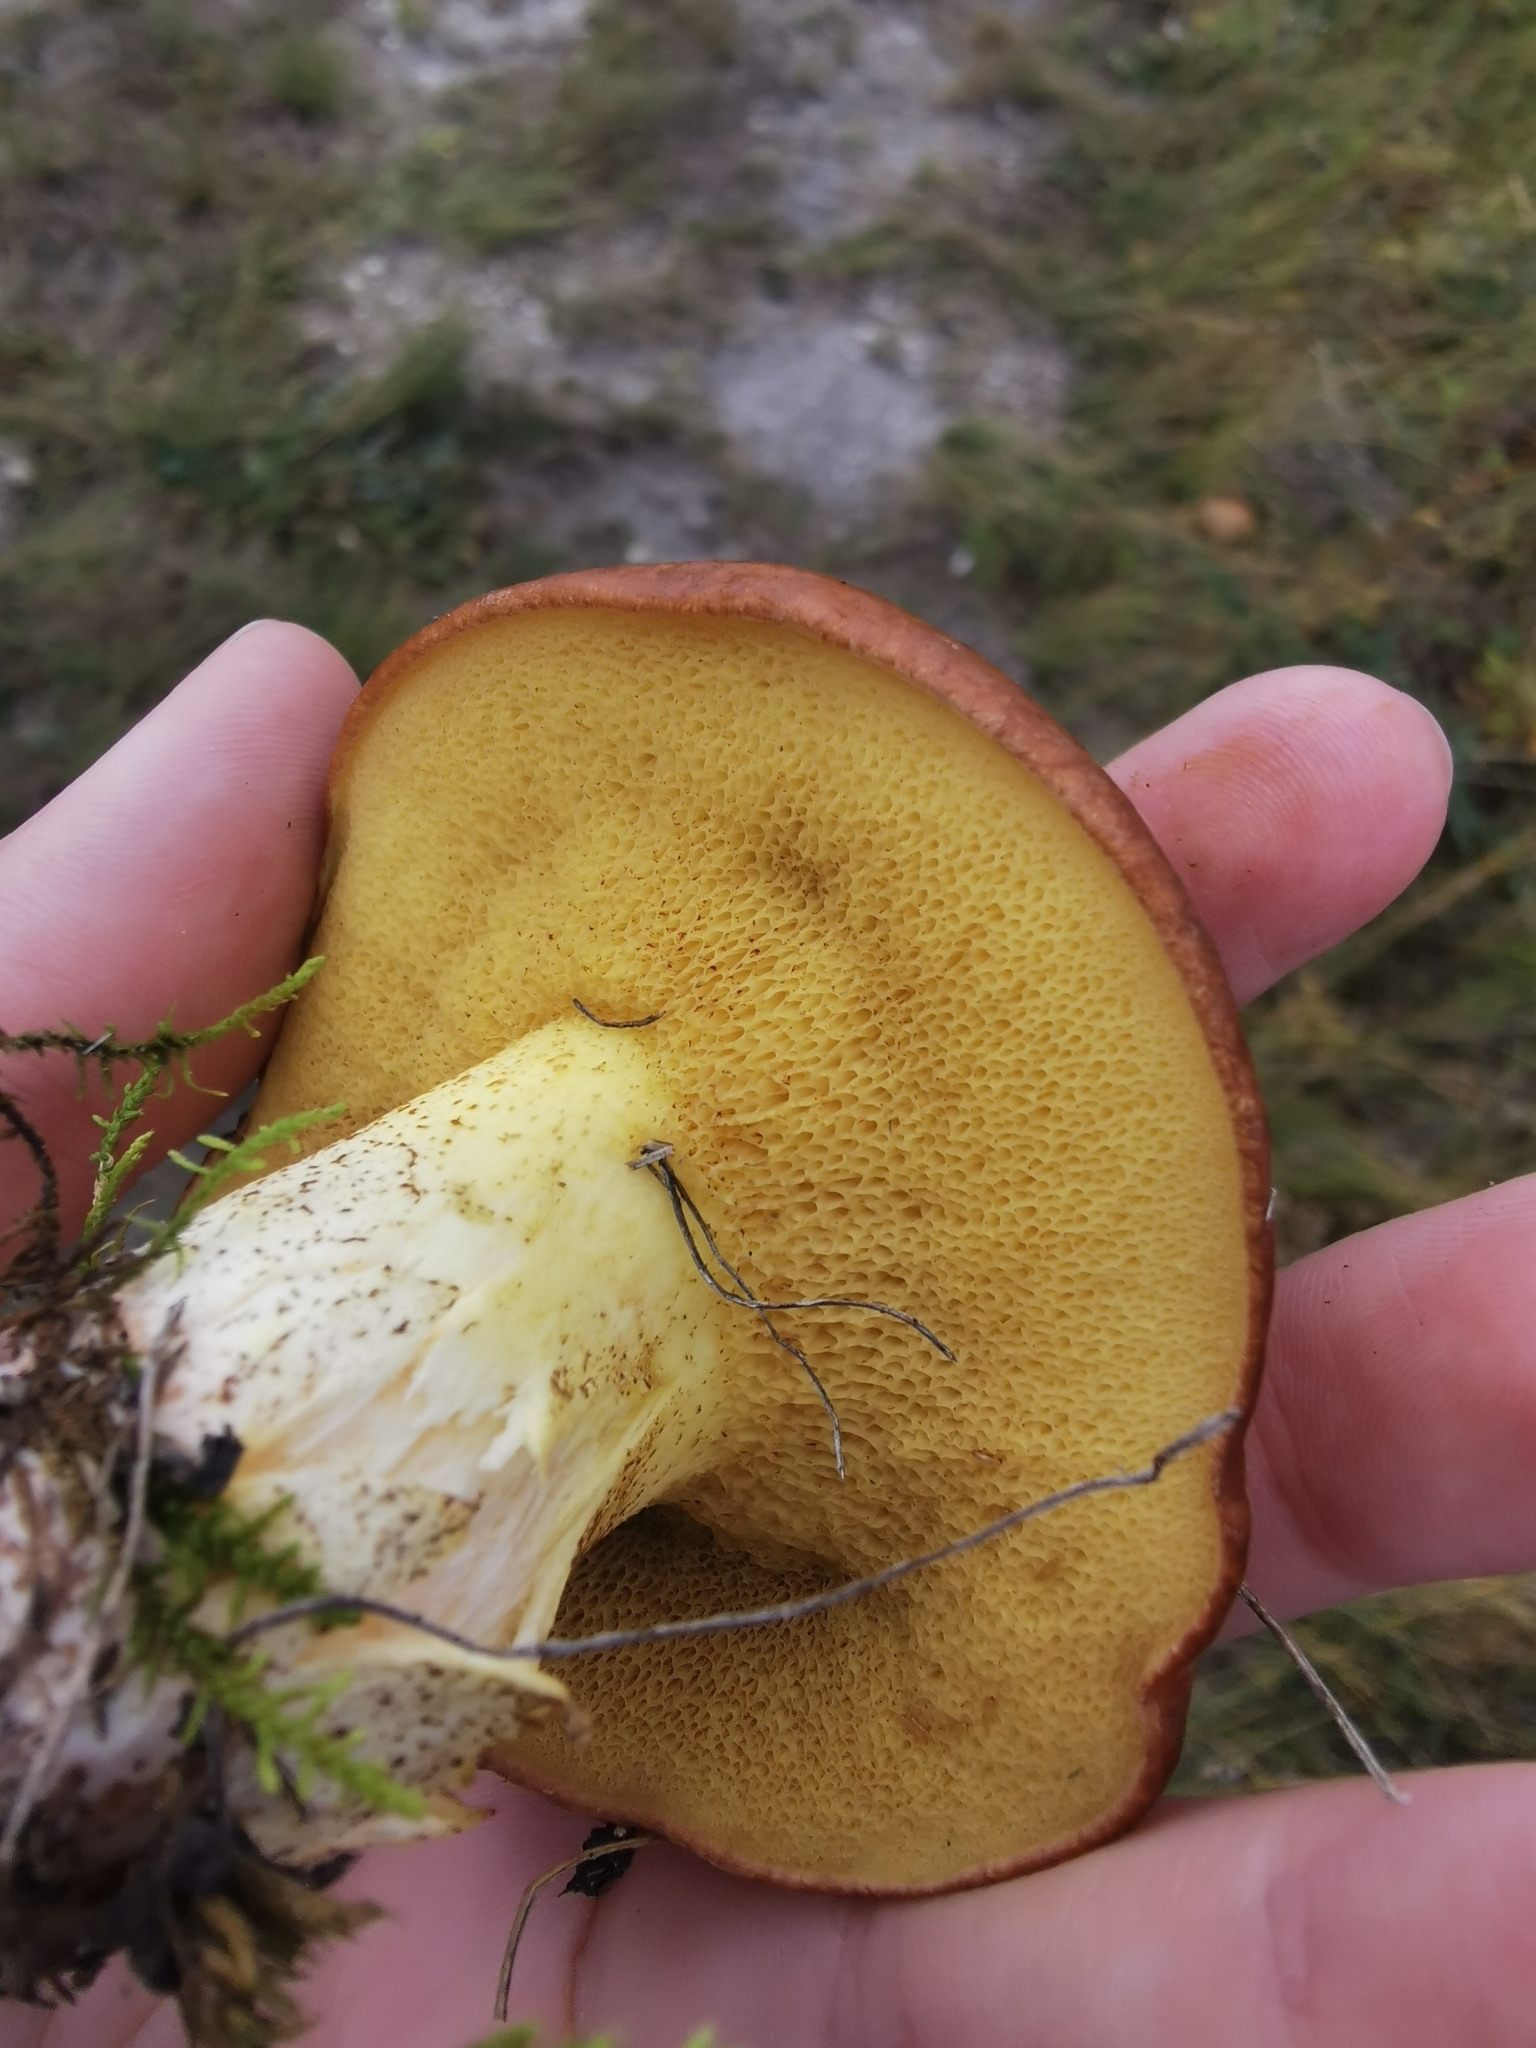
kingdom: Fungi
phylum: Basidiomycota
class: Agaricomycetes
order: Boletales
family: Suillaceae
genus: Suillus
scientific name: Suillus granulatus
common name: Weeping bolete
